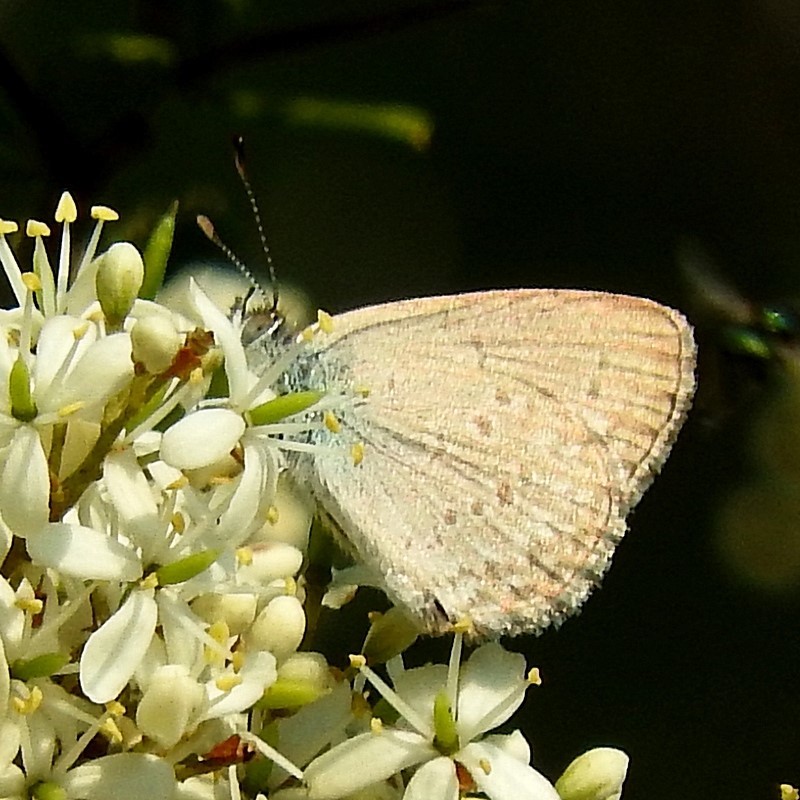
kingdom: Animalia
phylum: Arthropoda
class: Insecta
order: Lepidoptera
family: Lycaenidae
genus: Zizina
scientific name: Zizina labradus
